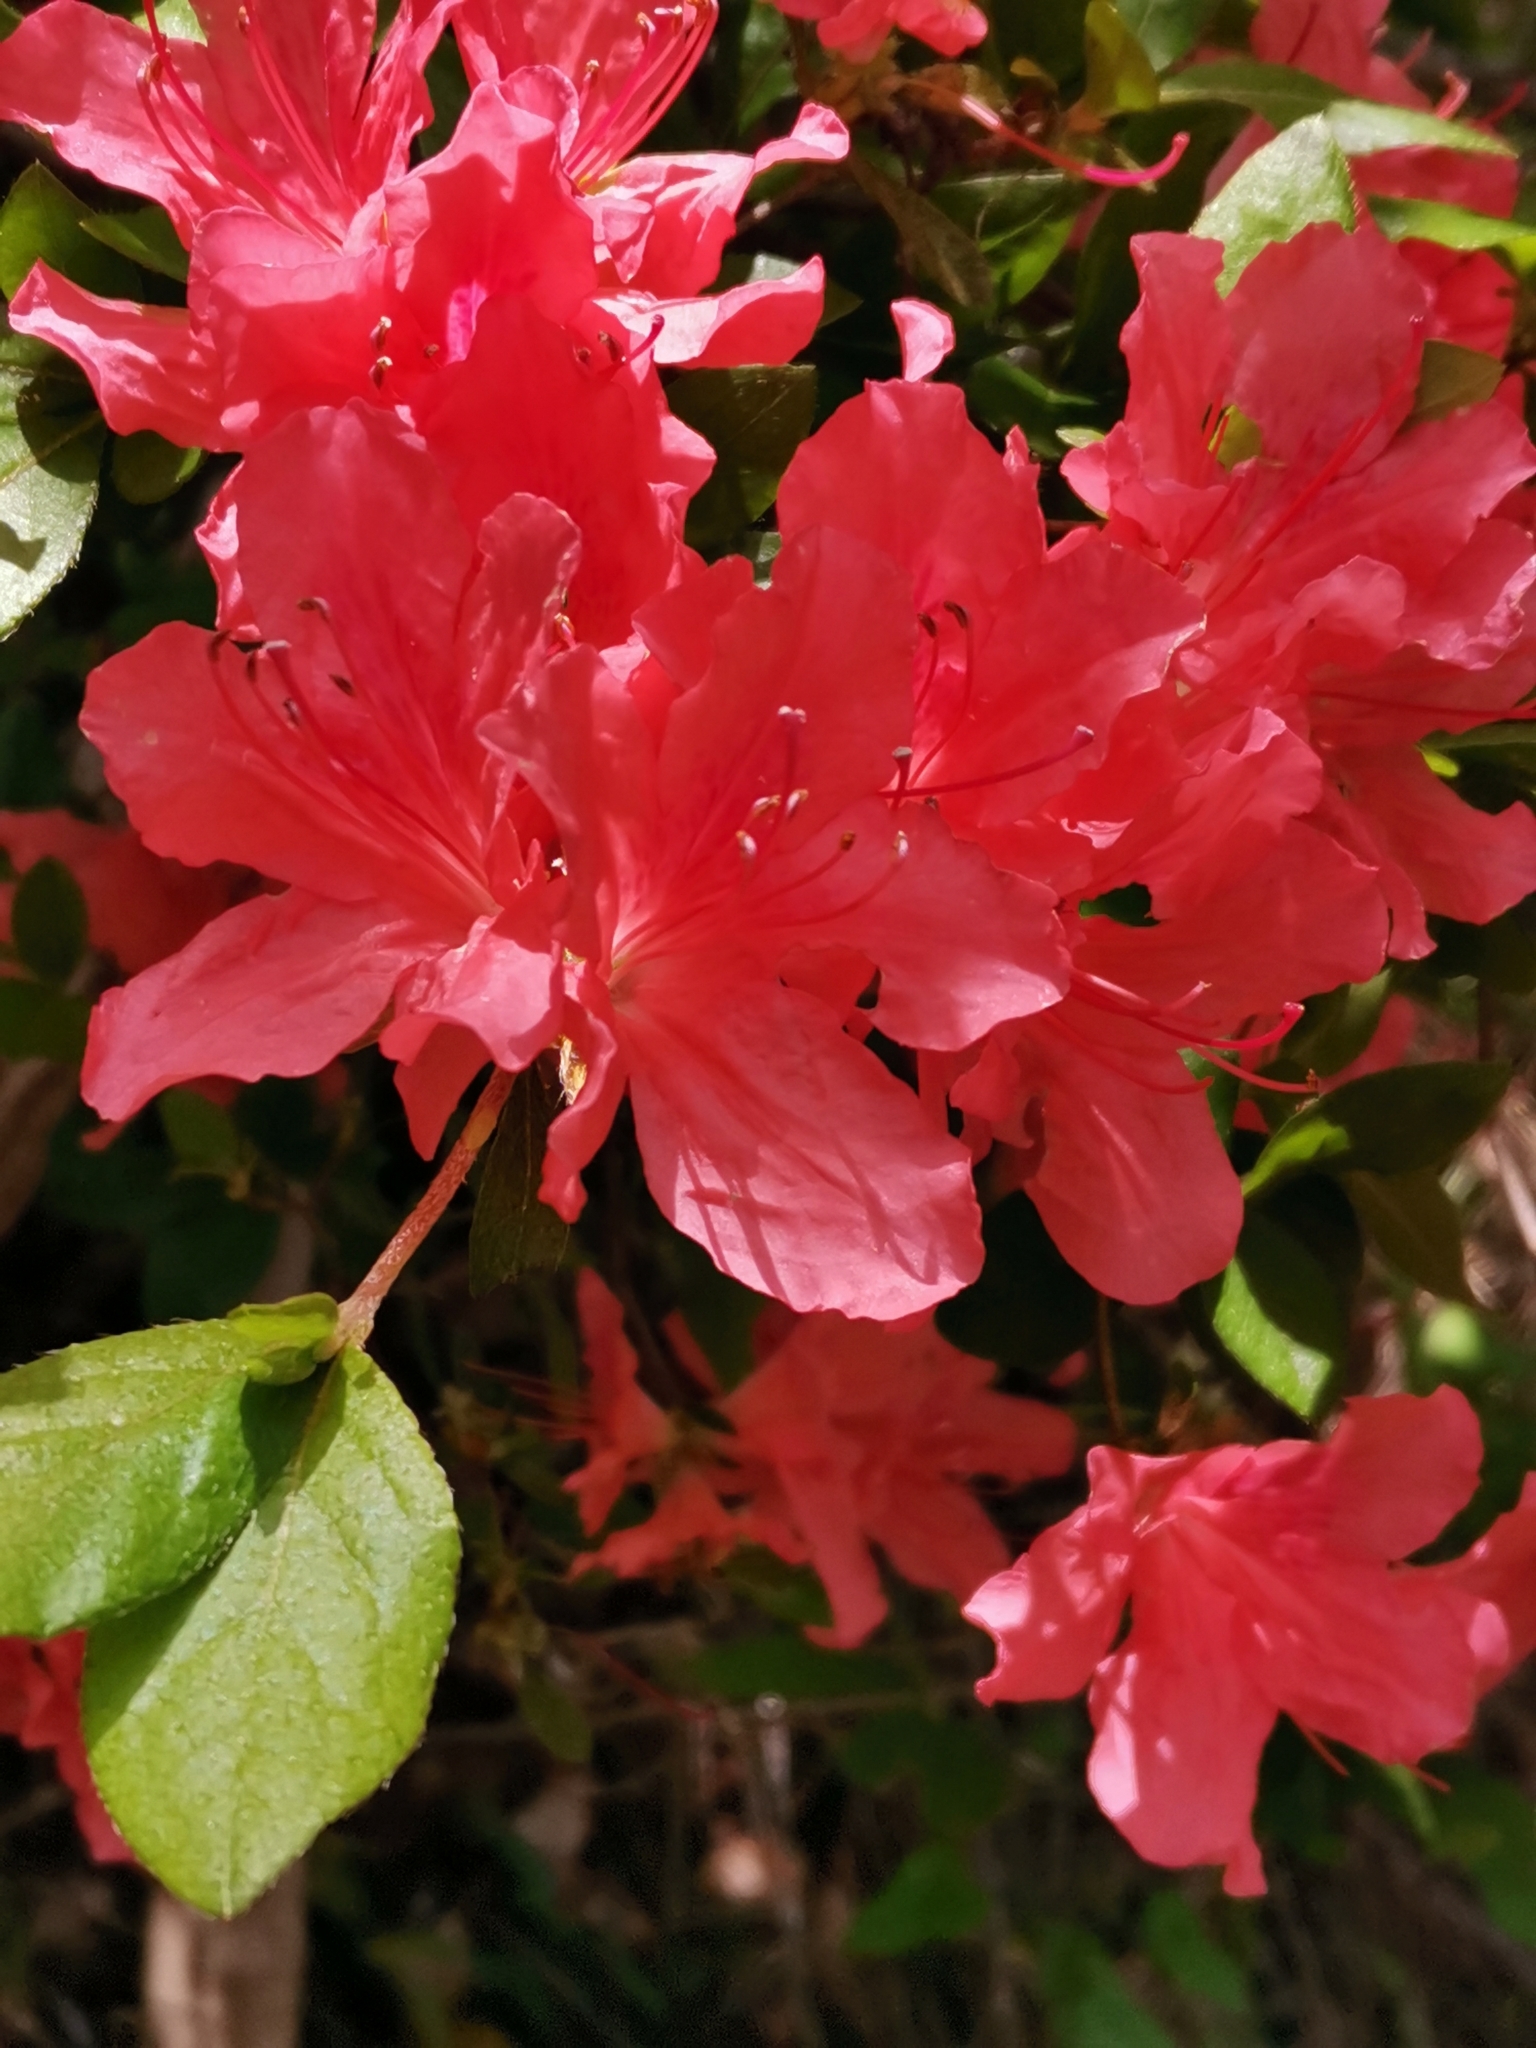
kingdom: Plantae
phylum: Tracheophyta
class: Magnoliopsida
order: Ericales
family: Ericaceae
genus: Rhododendron
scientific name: Rhododendron kaempferi
